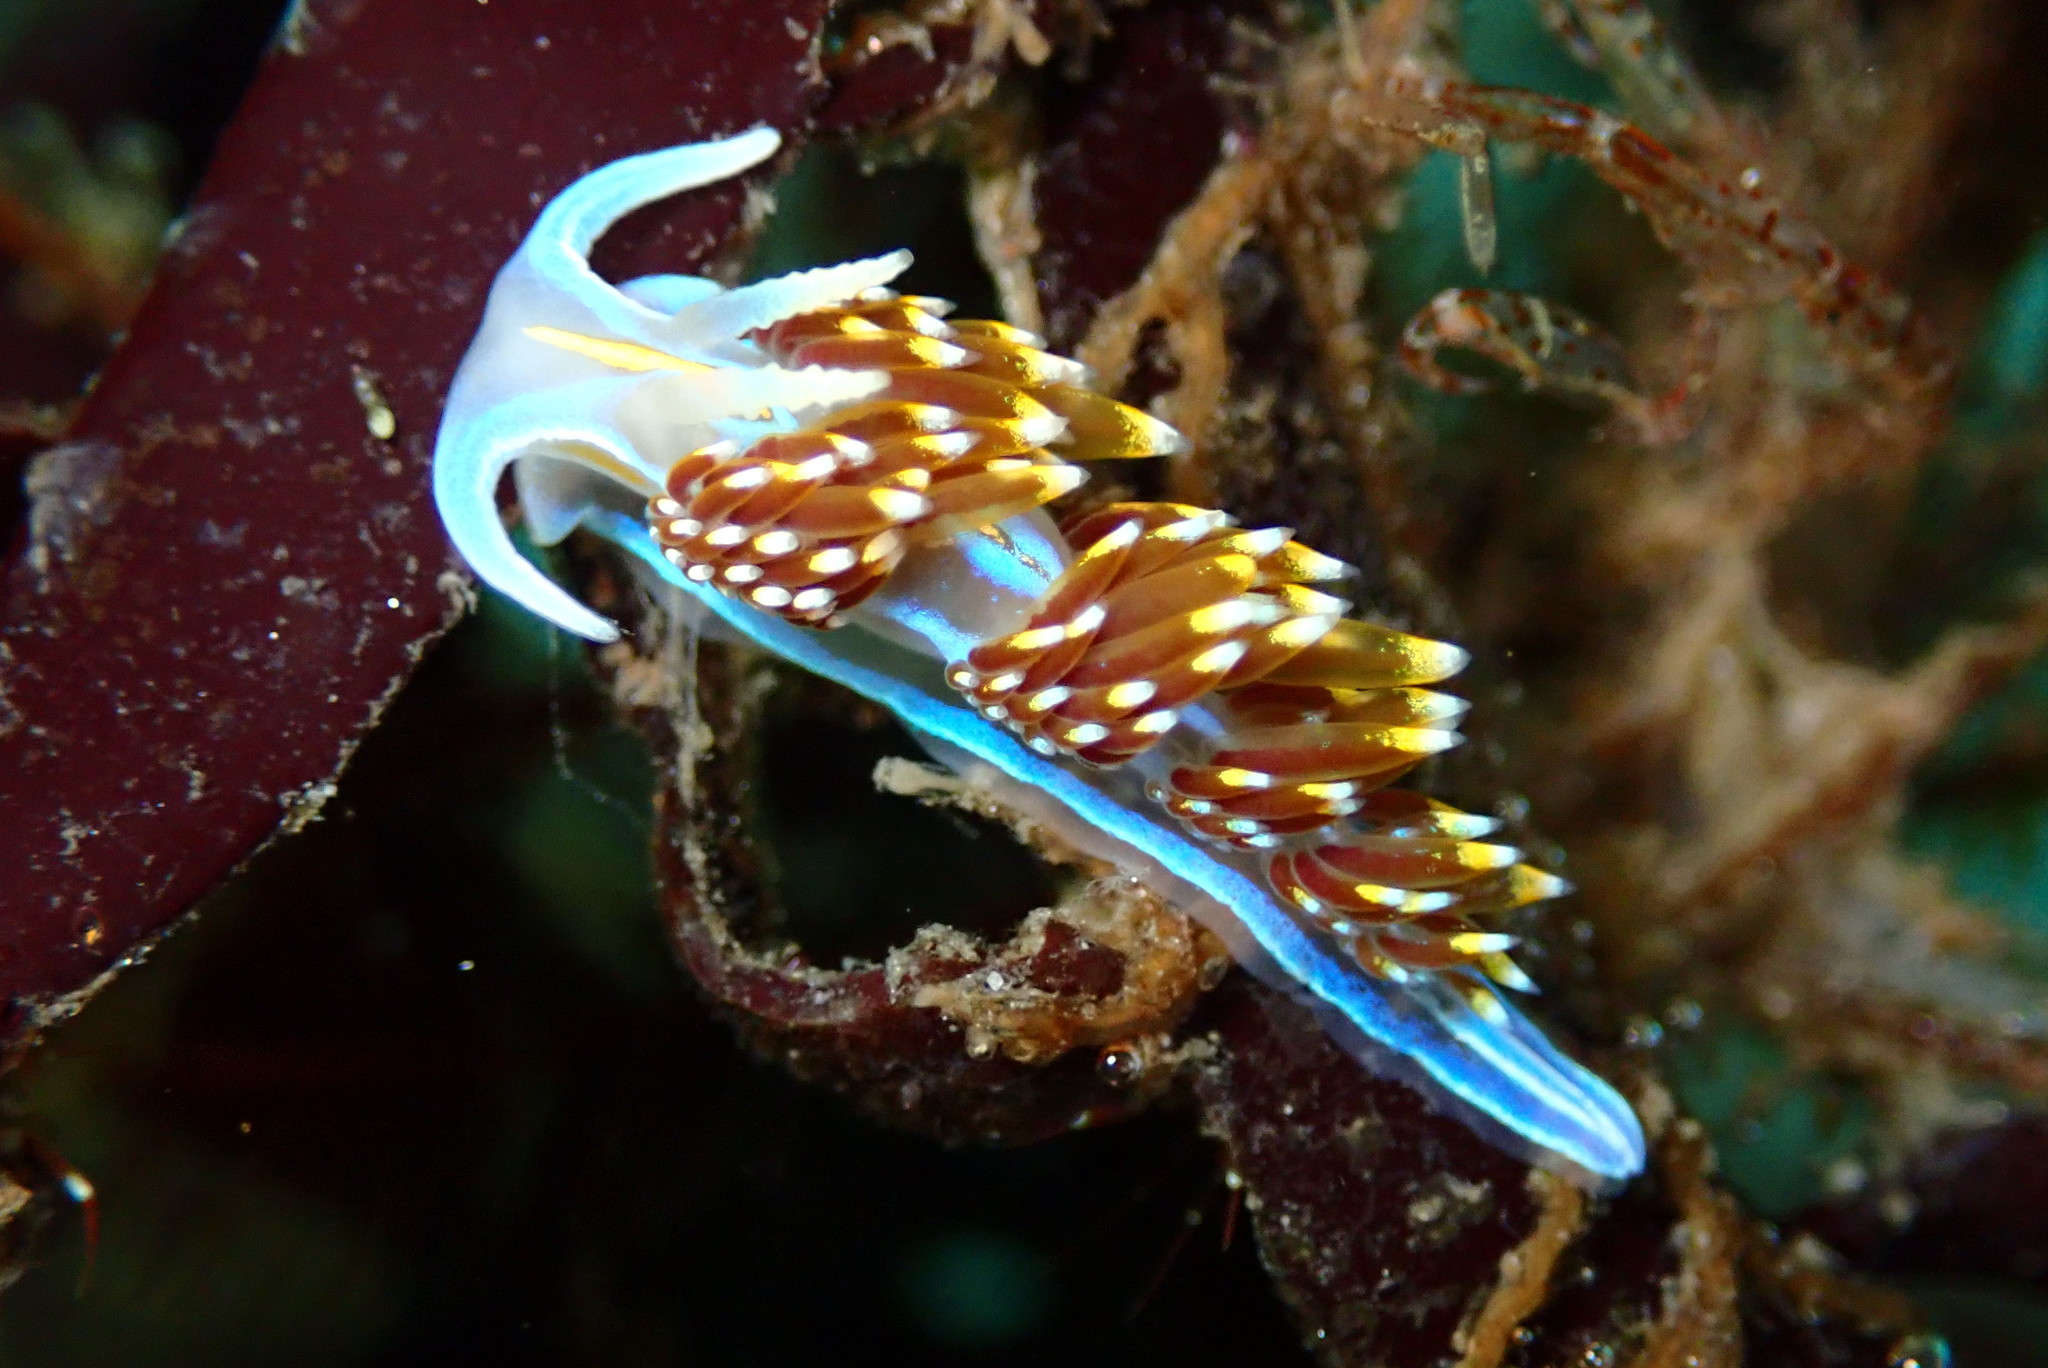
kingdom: Animalia
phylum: Mollusca
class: Gastropoda
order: Nudibranchia
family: Myrrhinidae
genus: Hermissenda
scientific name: Hermissenda opalescens
